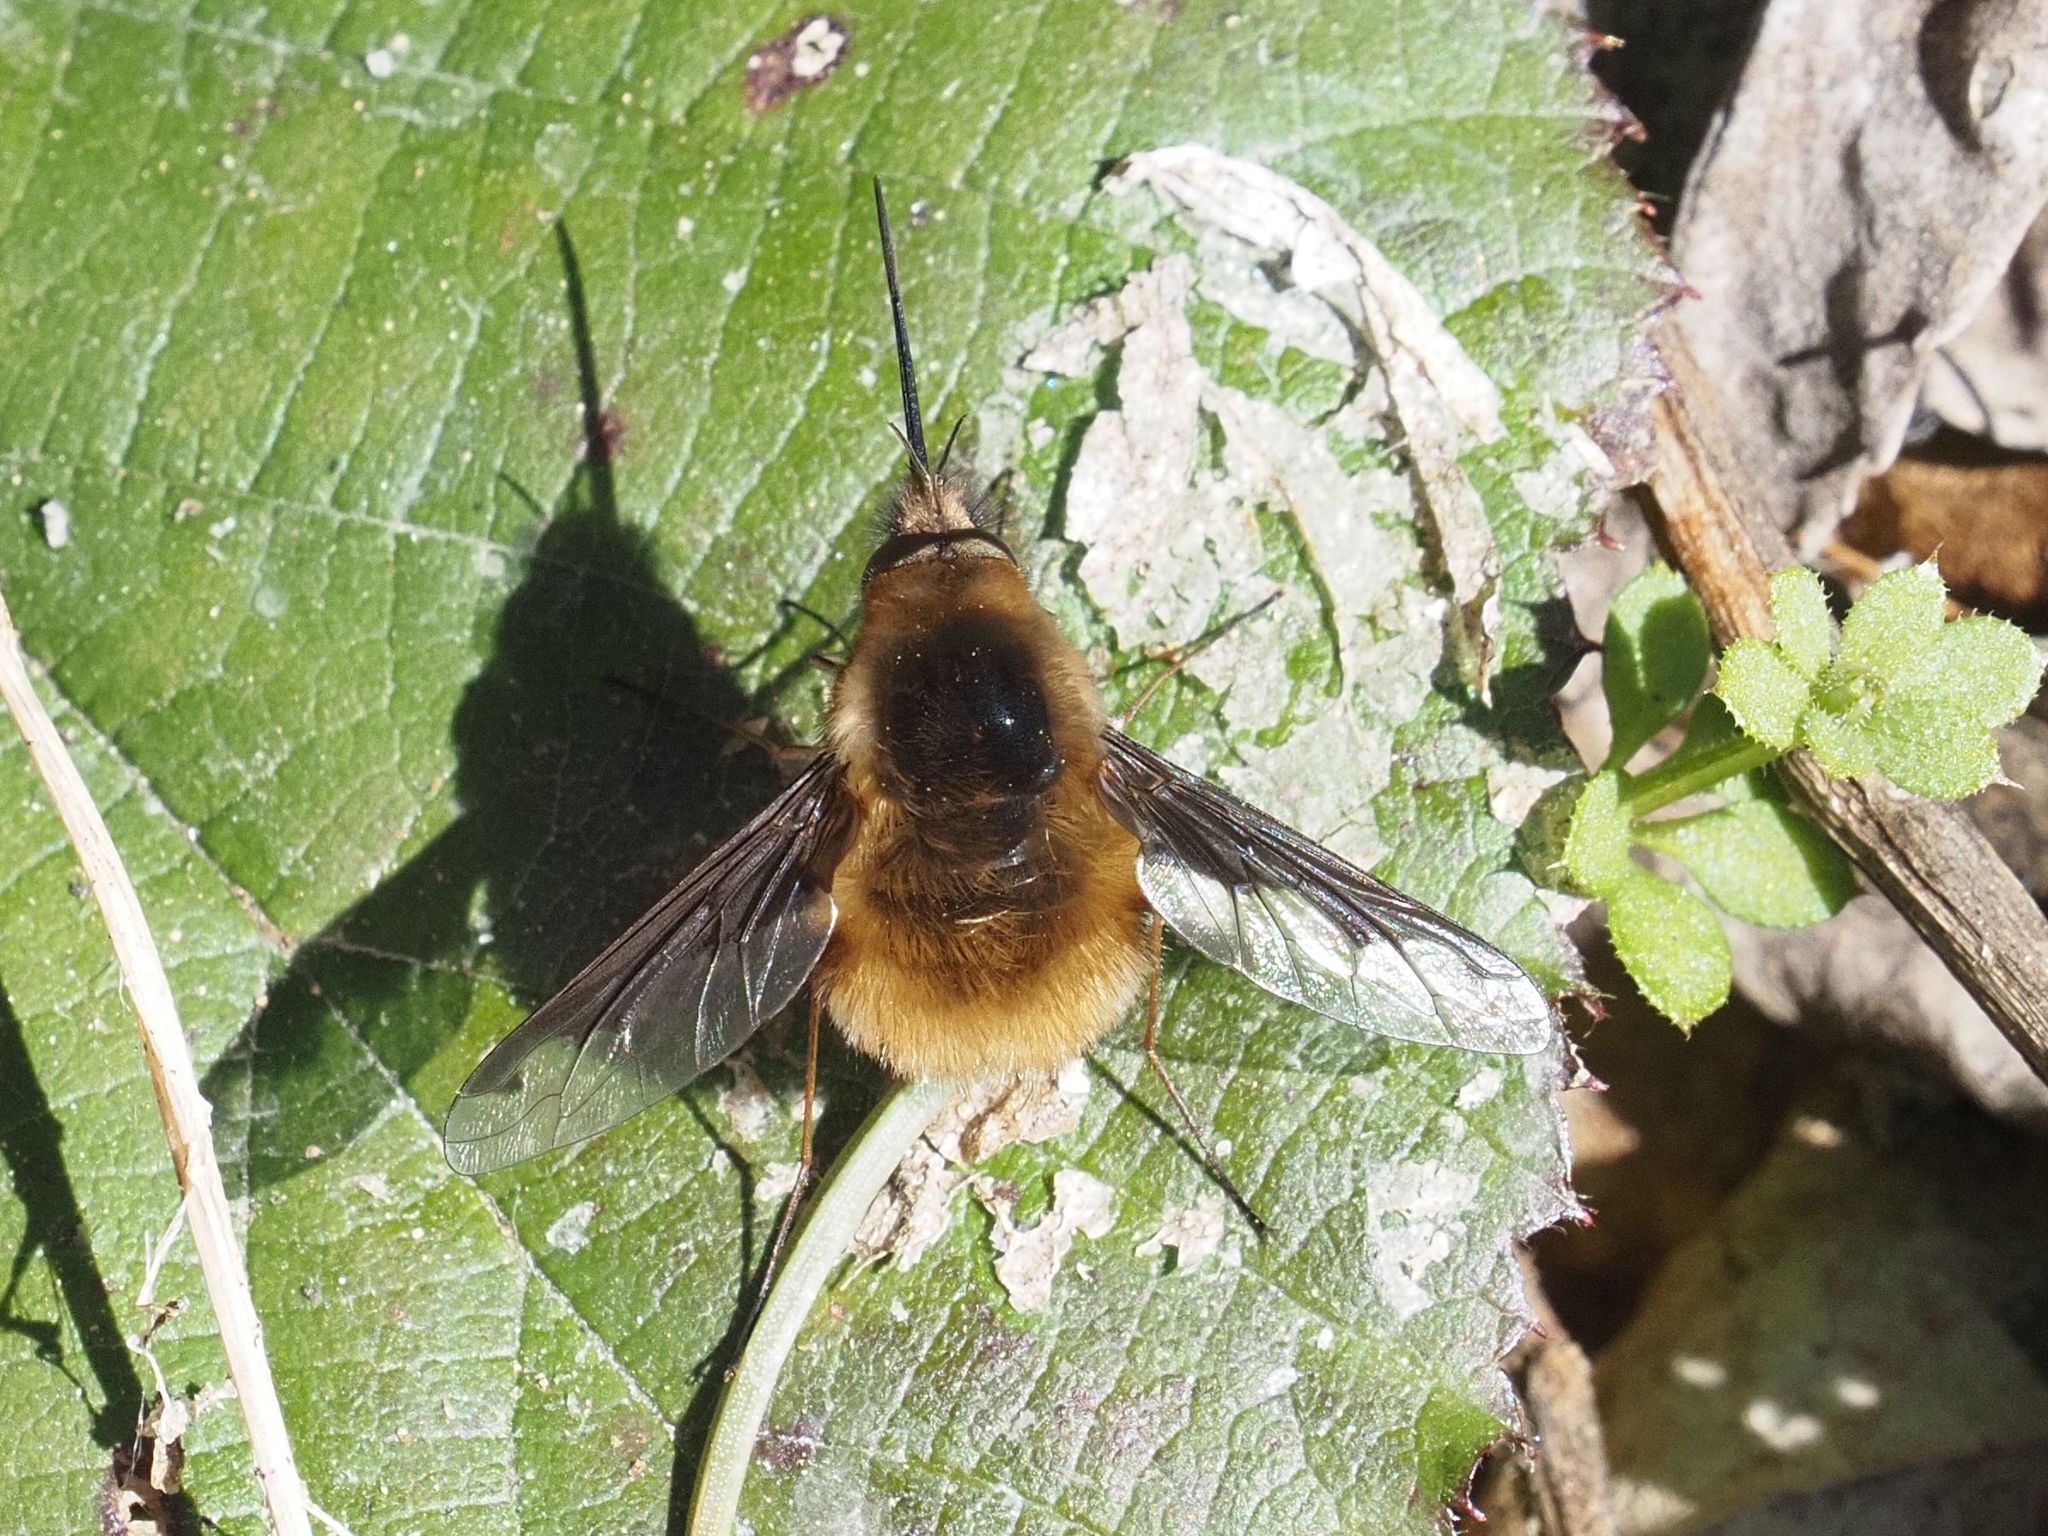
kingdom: Animalia
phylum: Arthropoda
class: Insecta
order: Diptera
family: Bombyliidae
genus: Bombylius
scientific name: Bombylius major
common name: Bee fly
